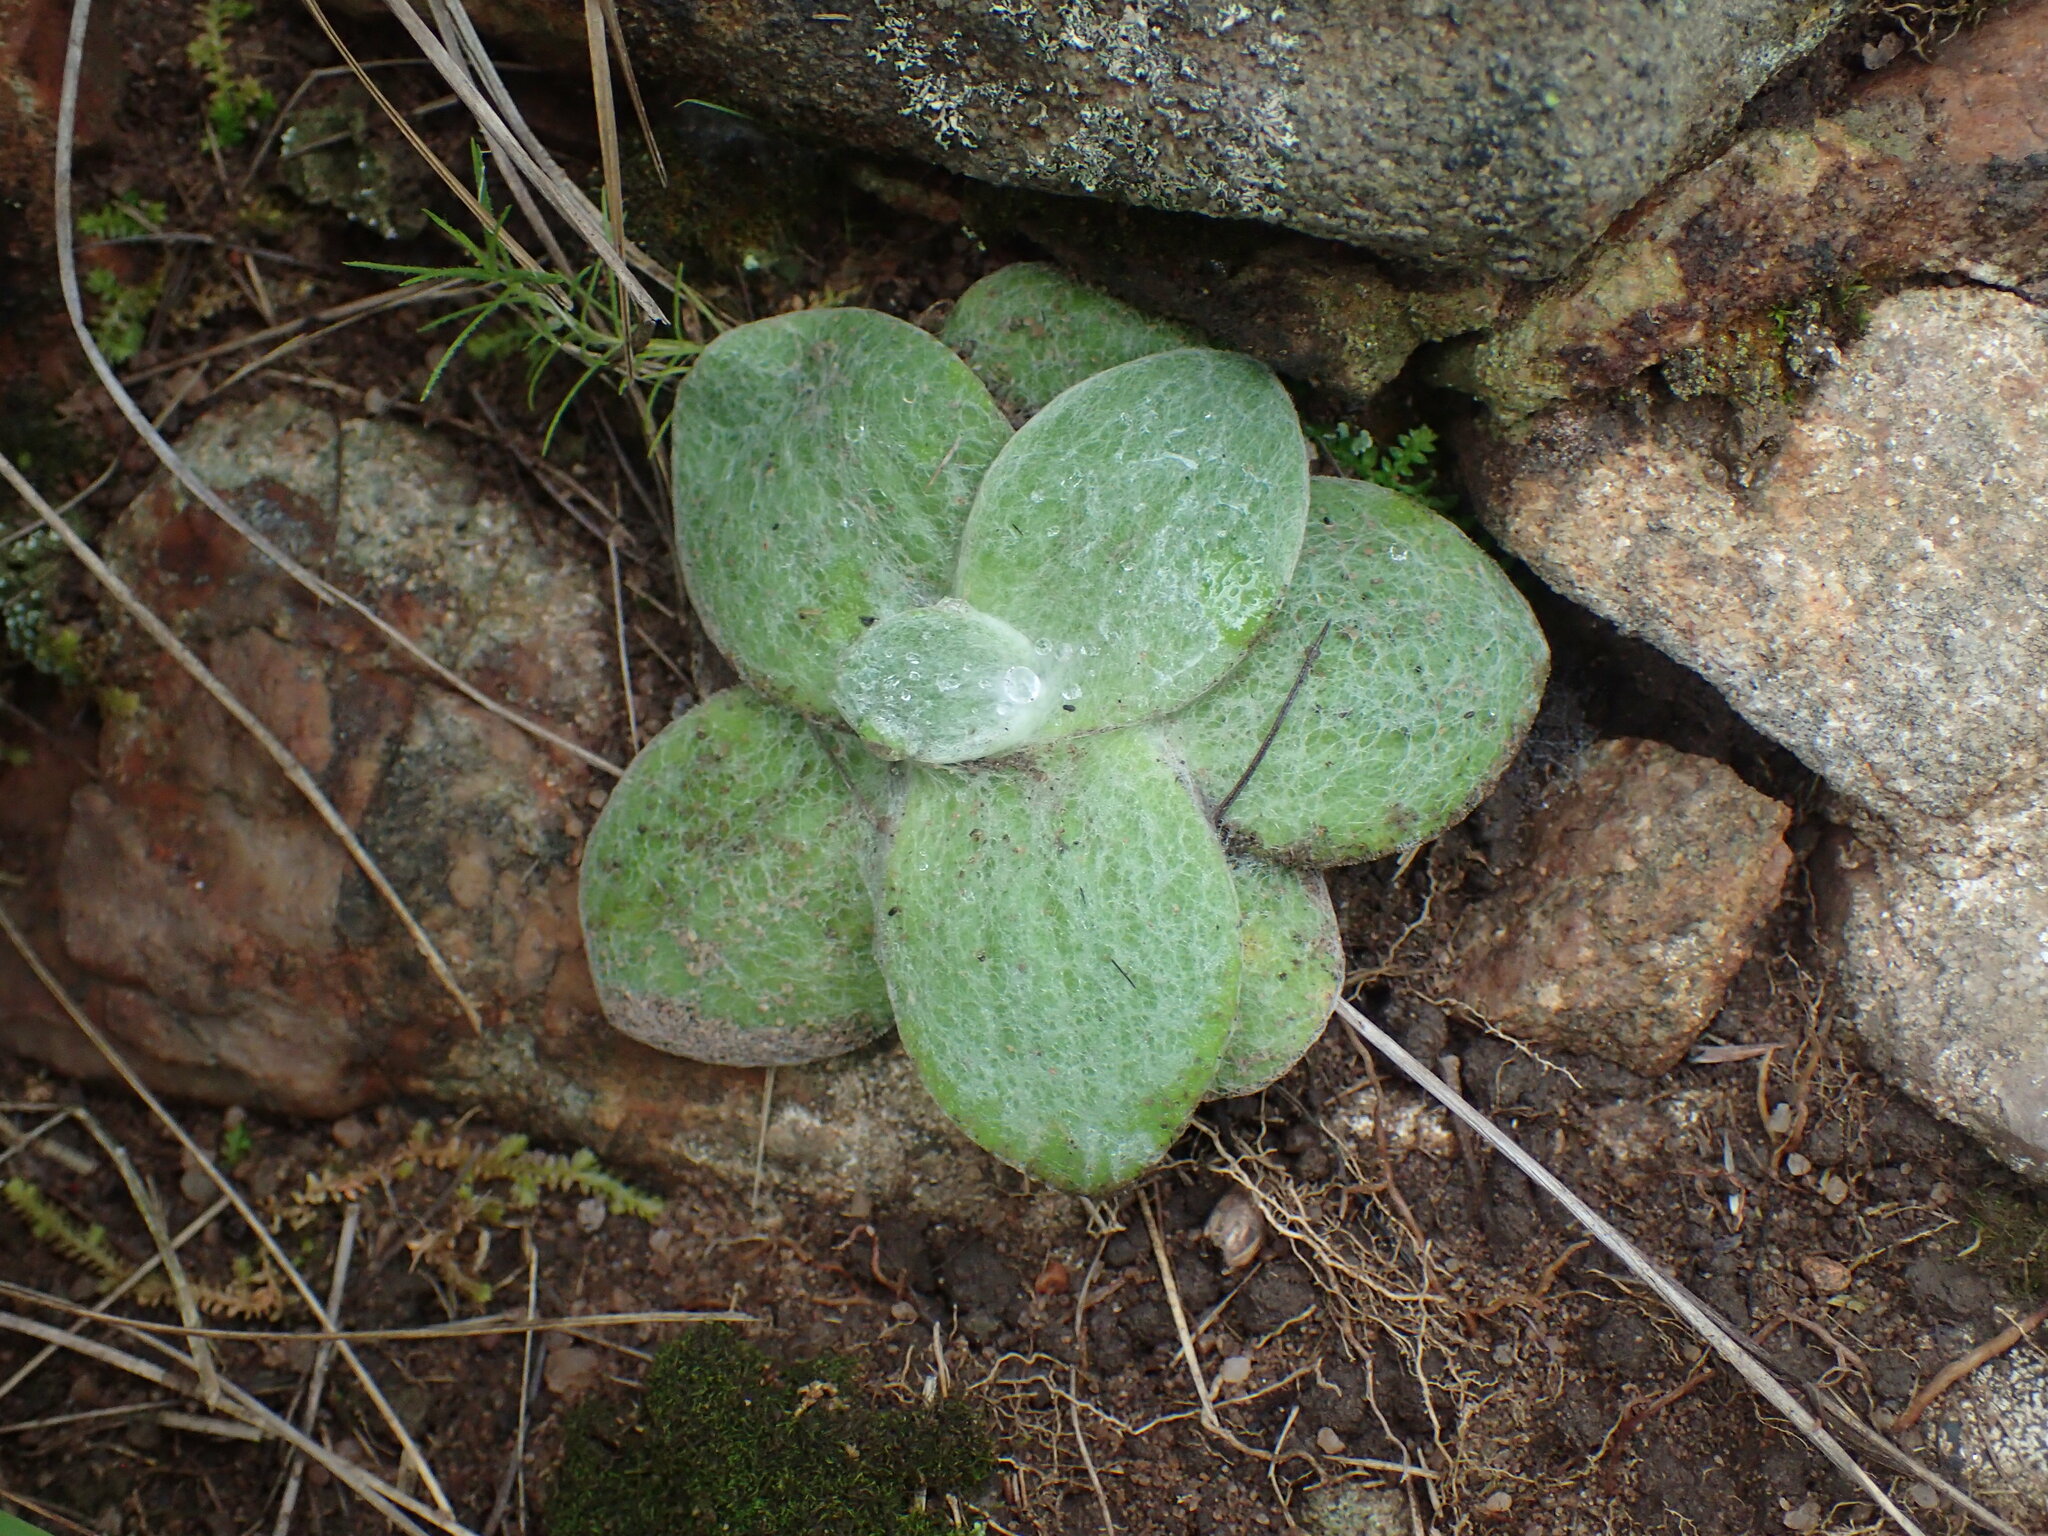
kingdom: Plantae
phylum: Tracheophyta
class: Magnoliopsida
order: Asterales
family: Asteraceae
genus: Helichrysum
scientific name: Helichrysum adenocarpum
